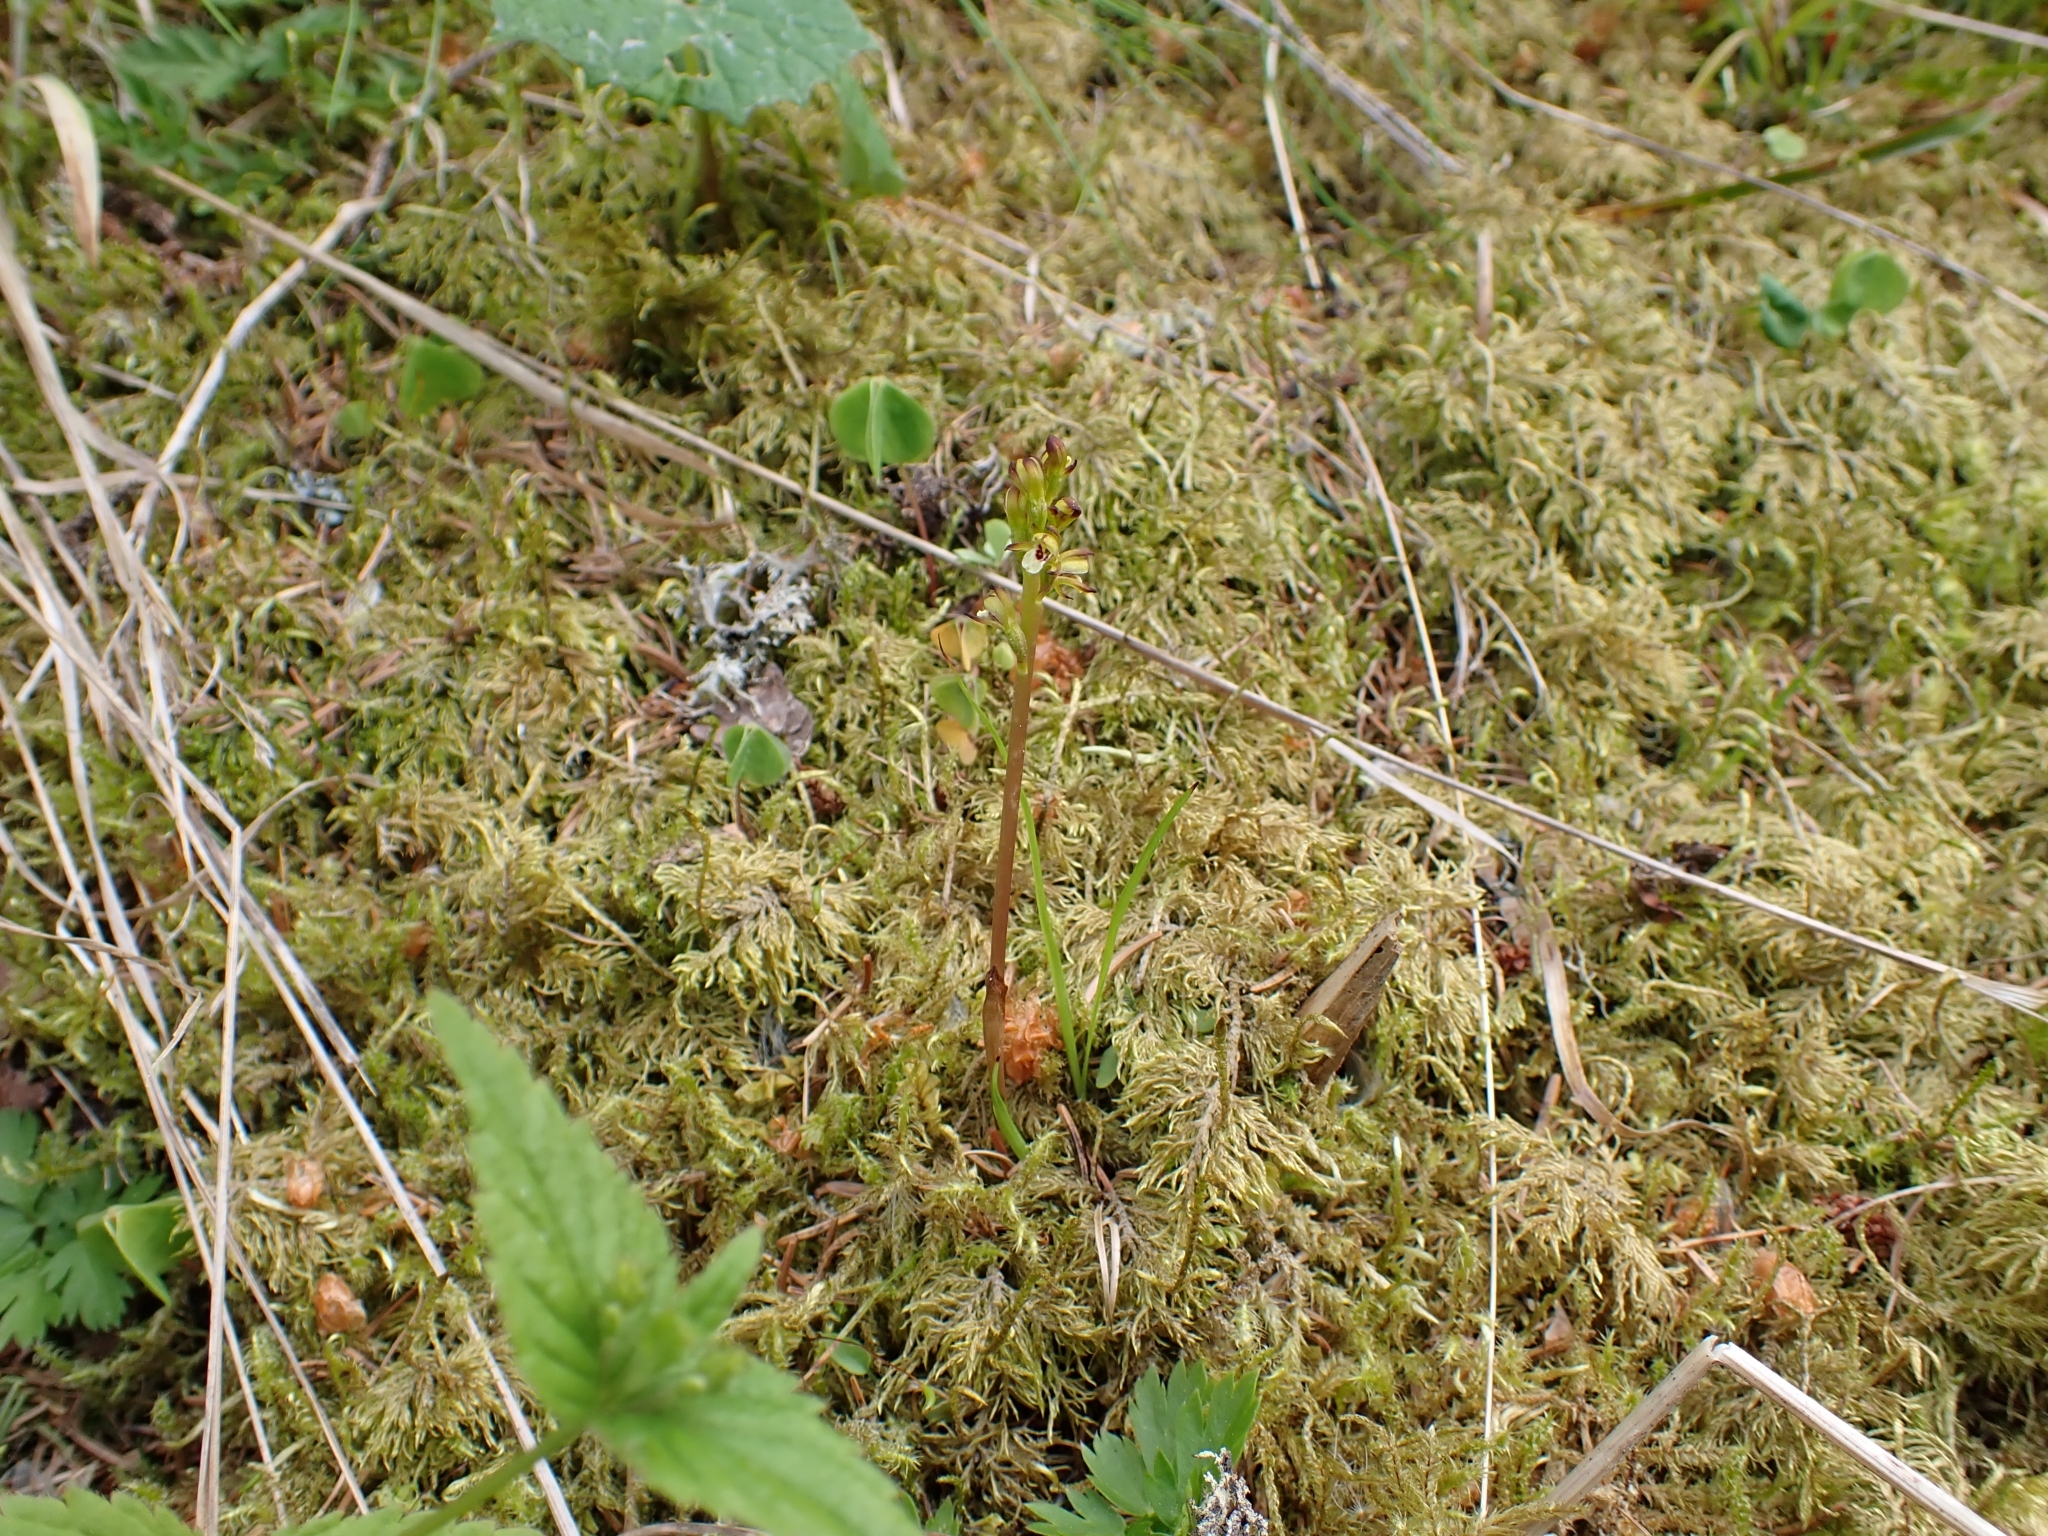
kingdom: Plantae
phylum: Tracheophyta
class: Liliopsida
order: Asparagales
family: Orchidaceae
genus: Corallorhiza
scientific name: Corallorhiza trifida
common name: Yellow coralroot
